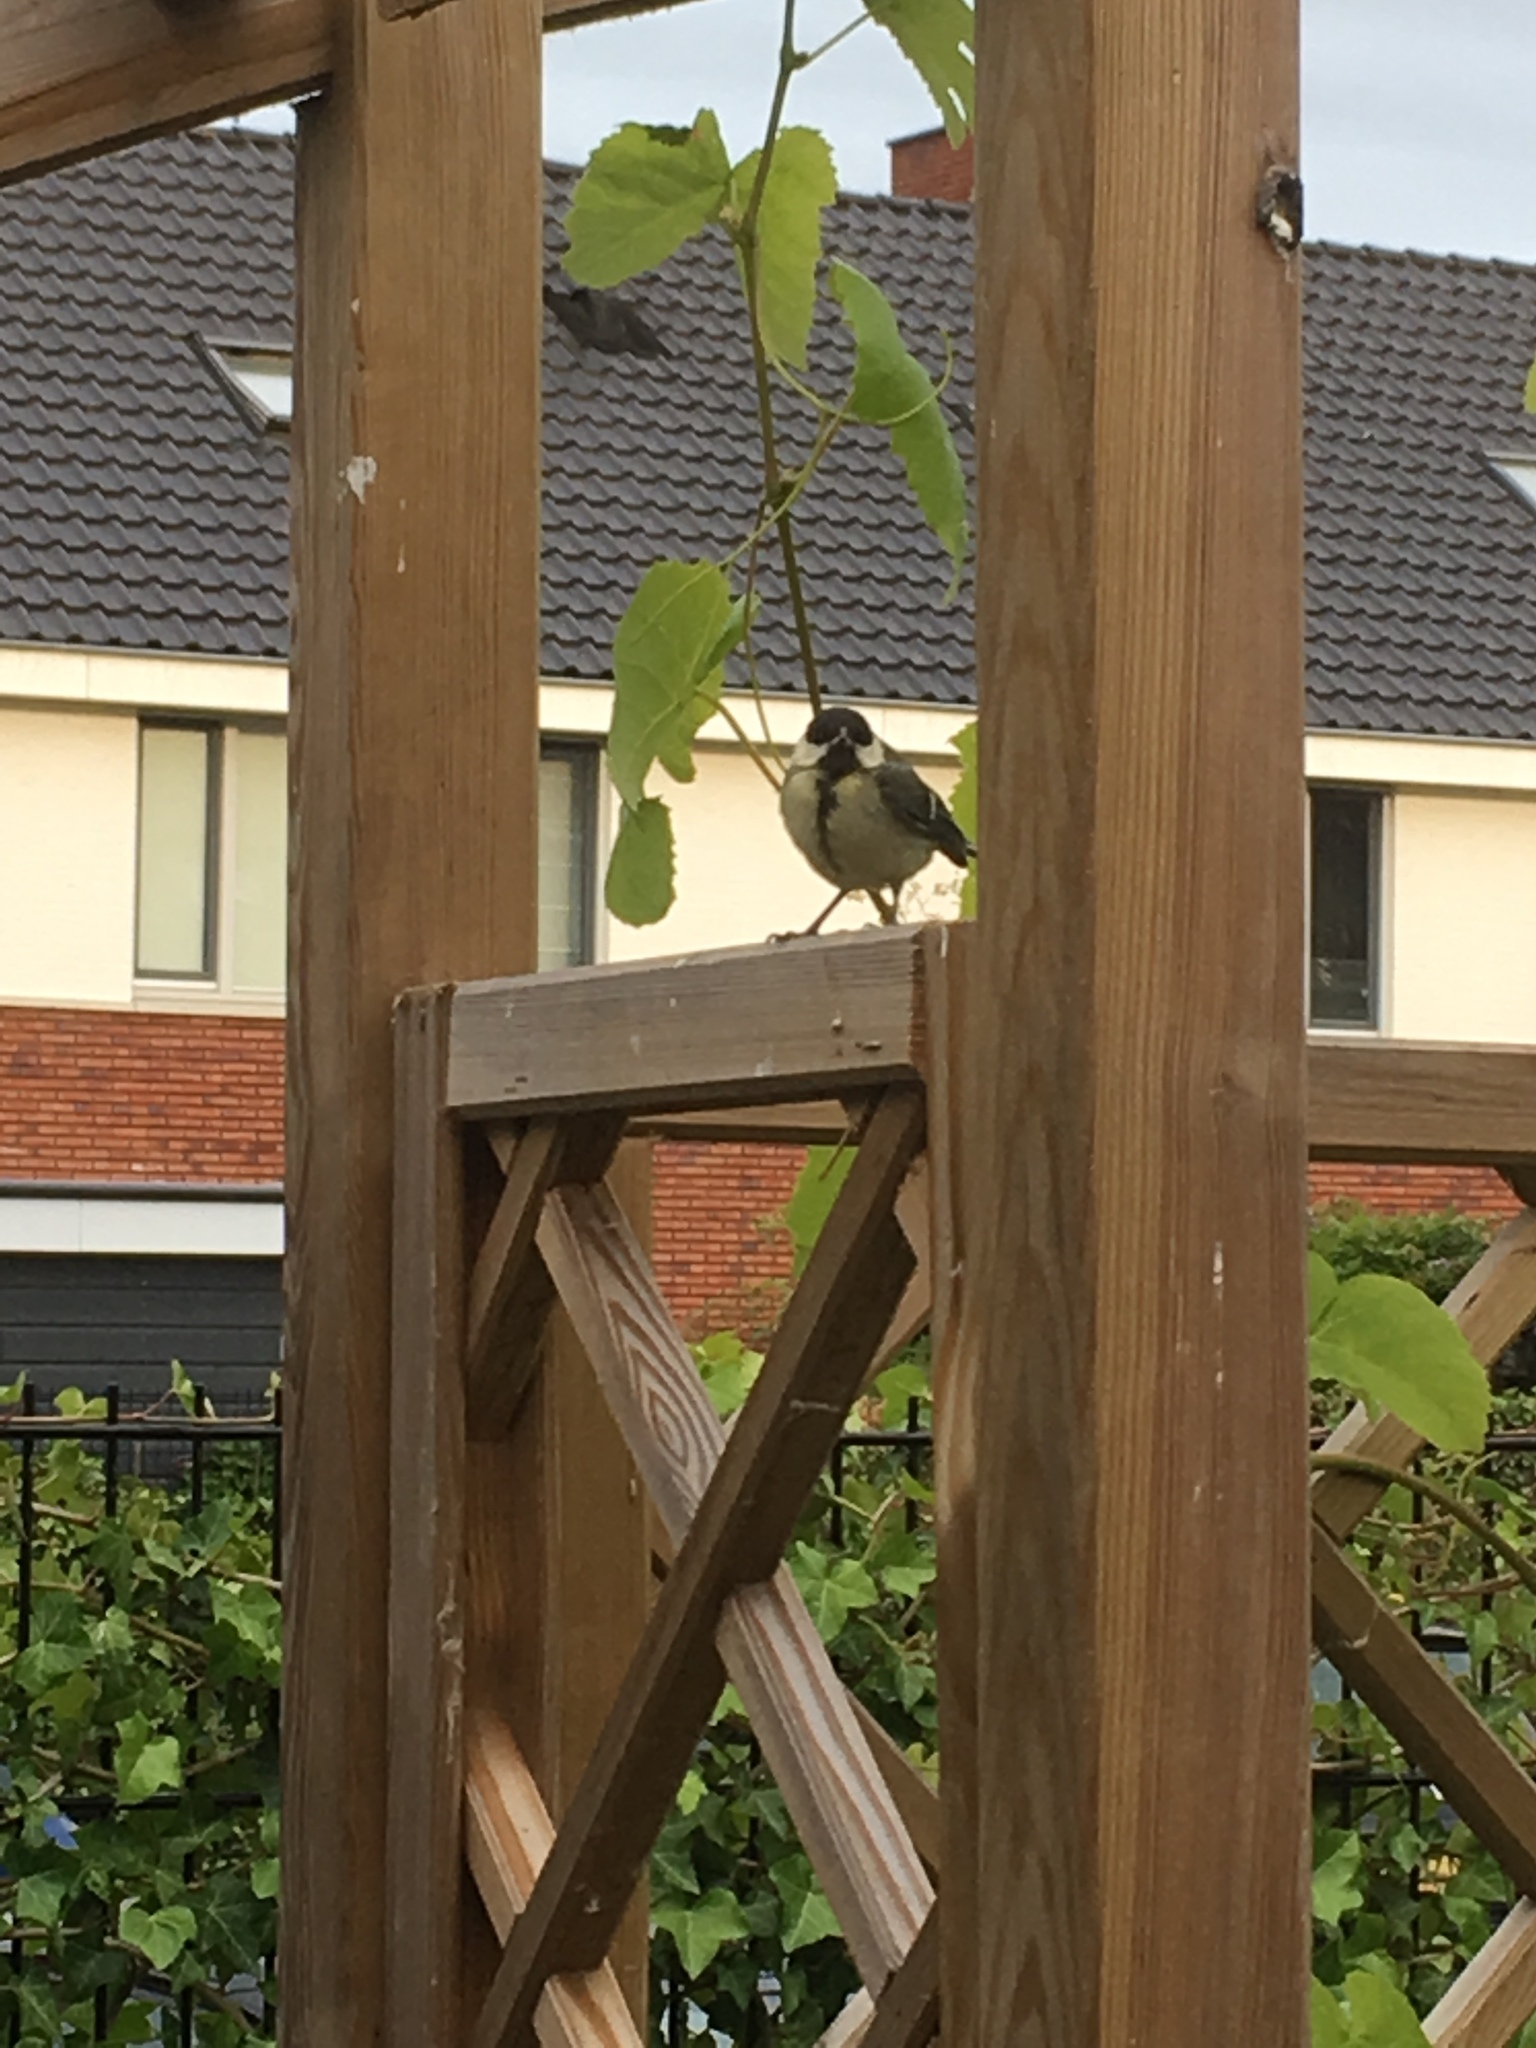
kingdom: Animalia
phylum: Chordata
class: Aves
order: Passeriformes
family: Paridae
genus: Parus
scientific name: Parus major
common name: Great tit
